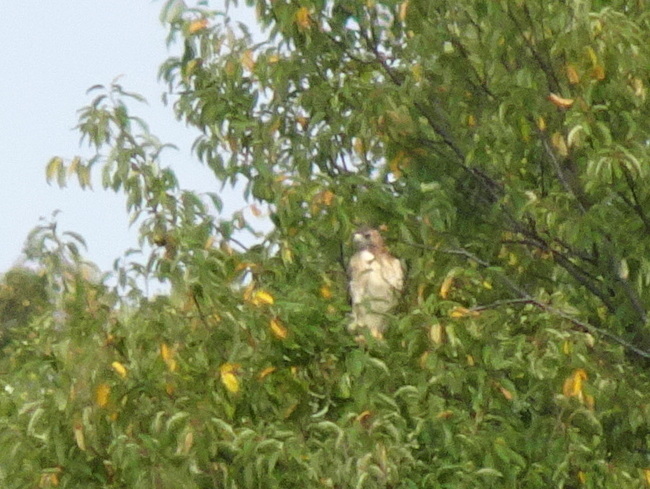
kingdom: Animalia
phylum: Chordata
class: Aves
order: Accipitriformes
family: Accipitridae
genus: Buteo
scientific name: Buteo jamaicensis
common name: Red-tailed hawk
